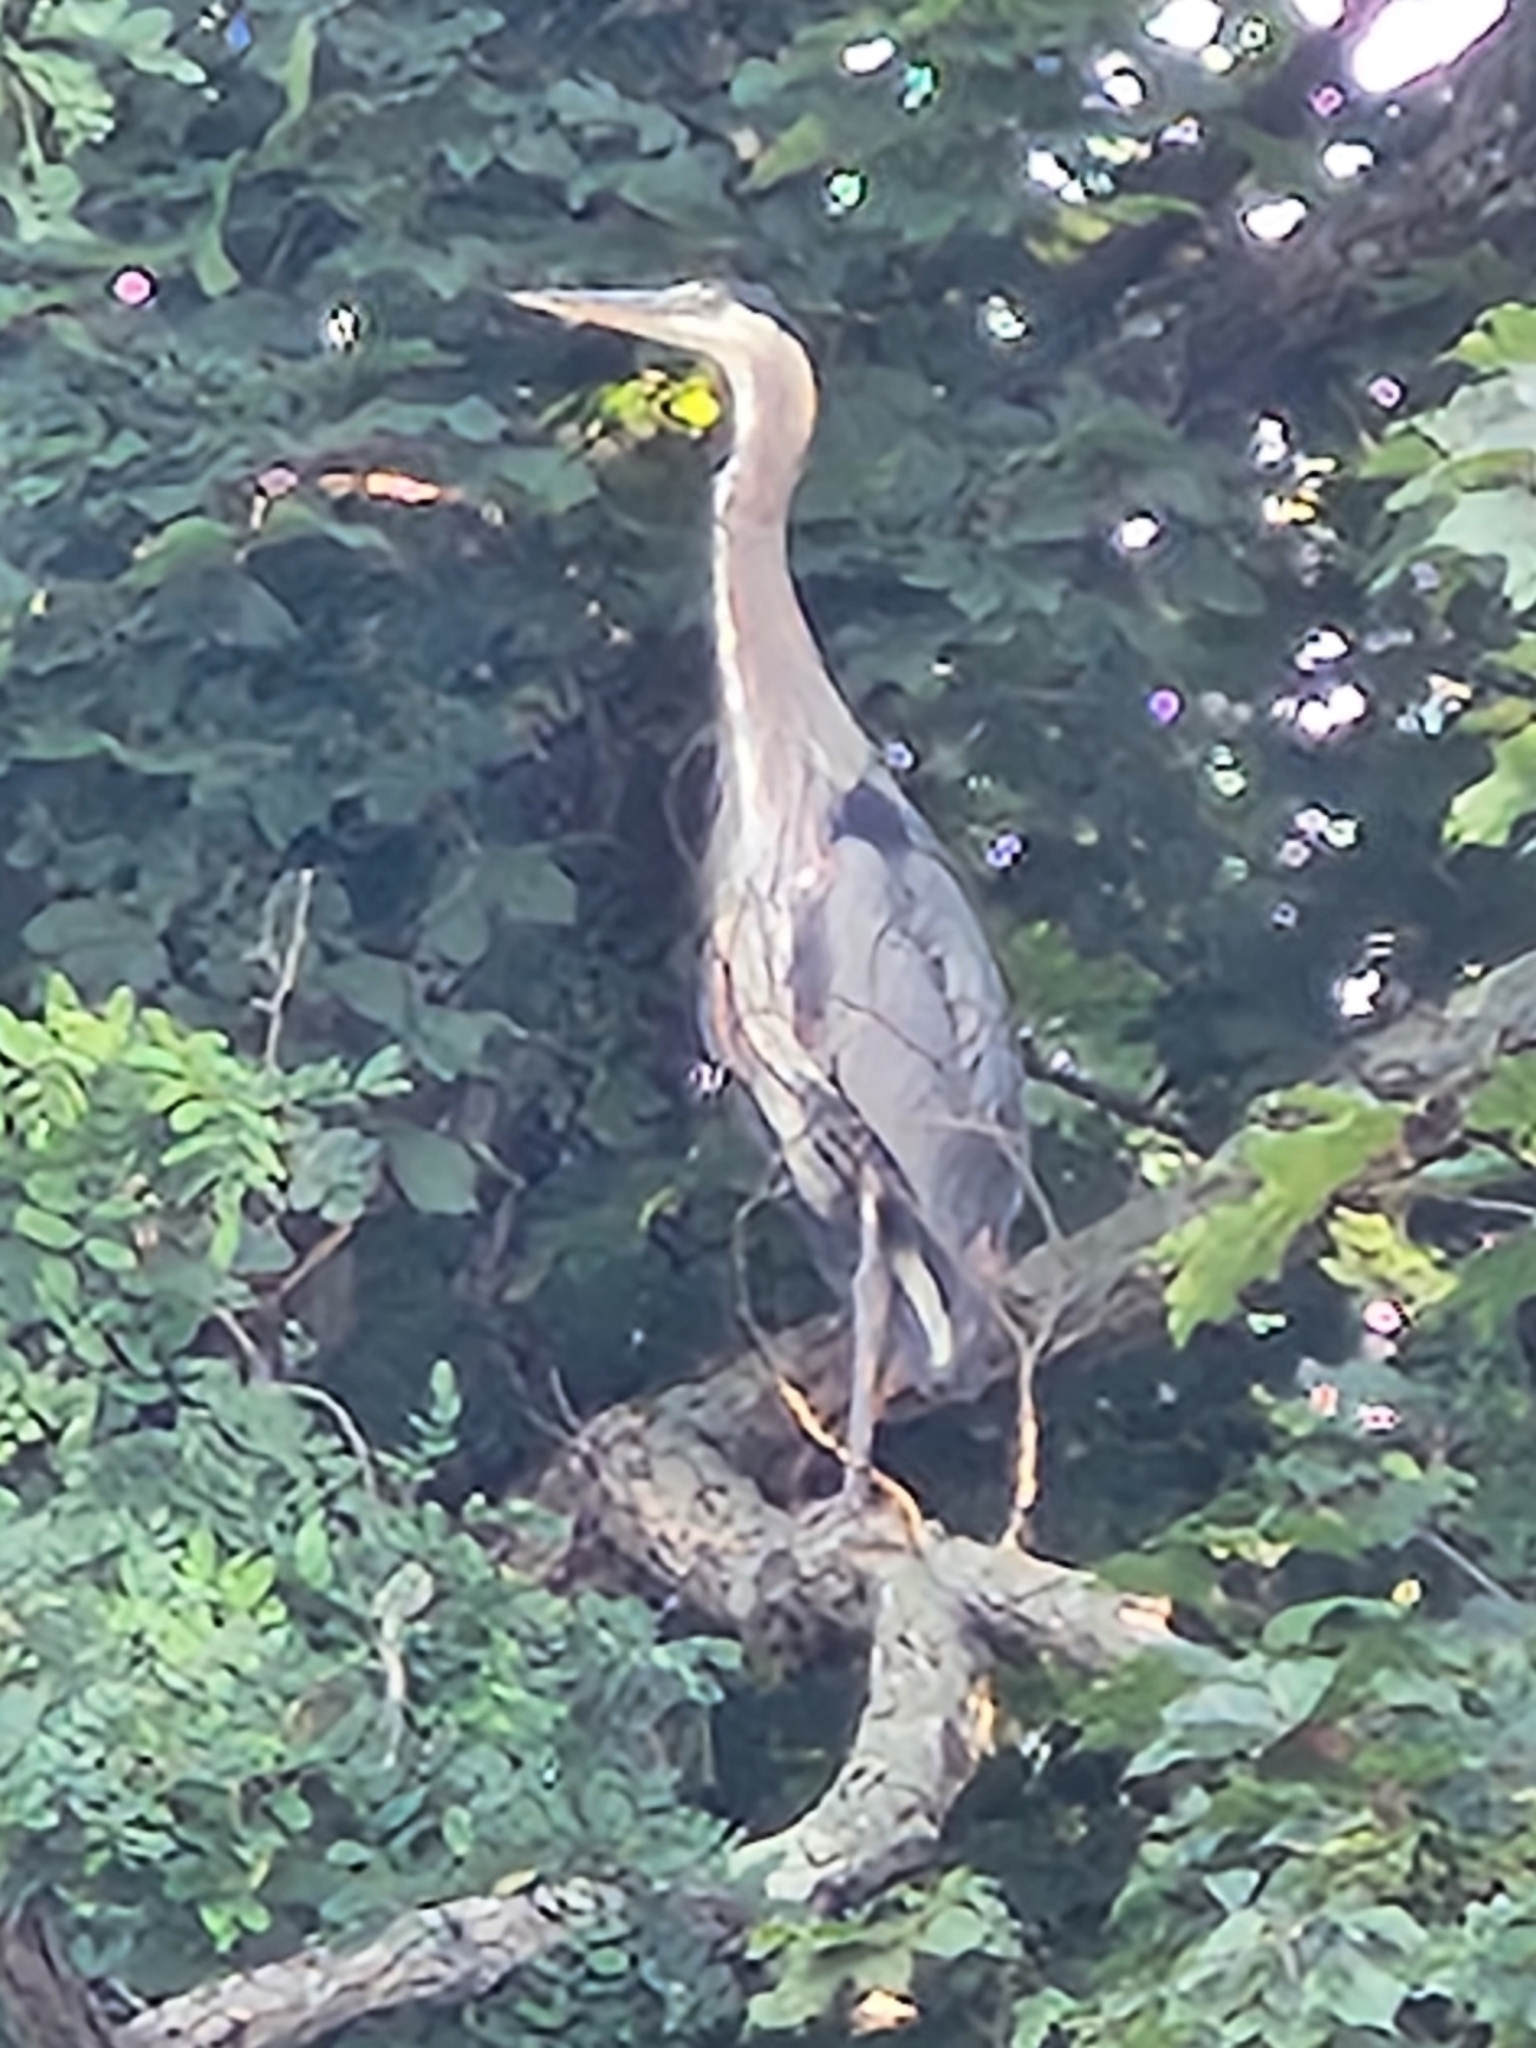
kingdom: Animalia
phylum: Chordata
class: Aves
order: Pelecaniformes
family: Ardeidae
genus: Ardea
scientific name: Ardea herodias
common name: Great blue heron
